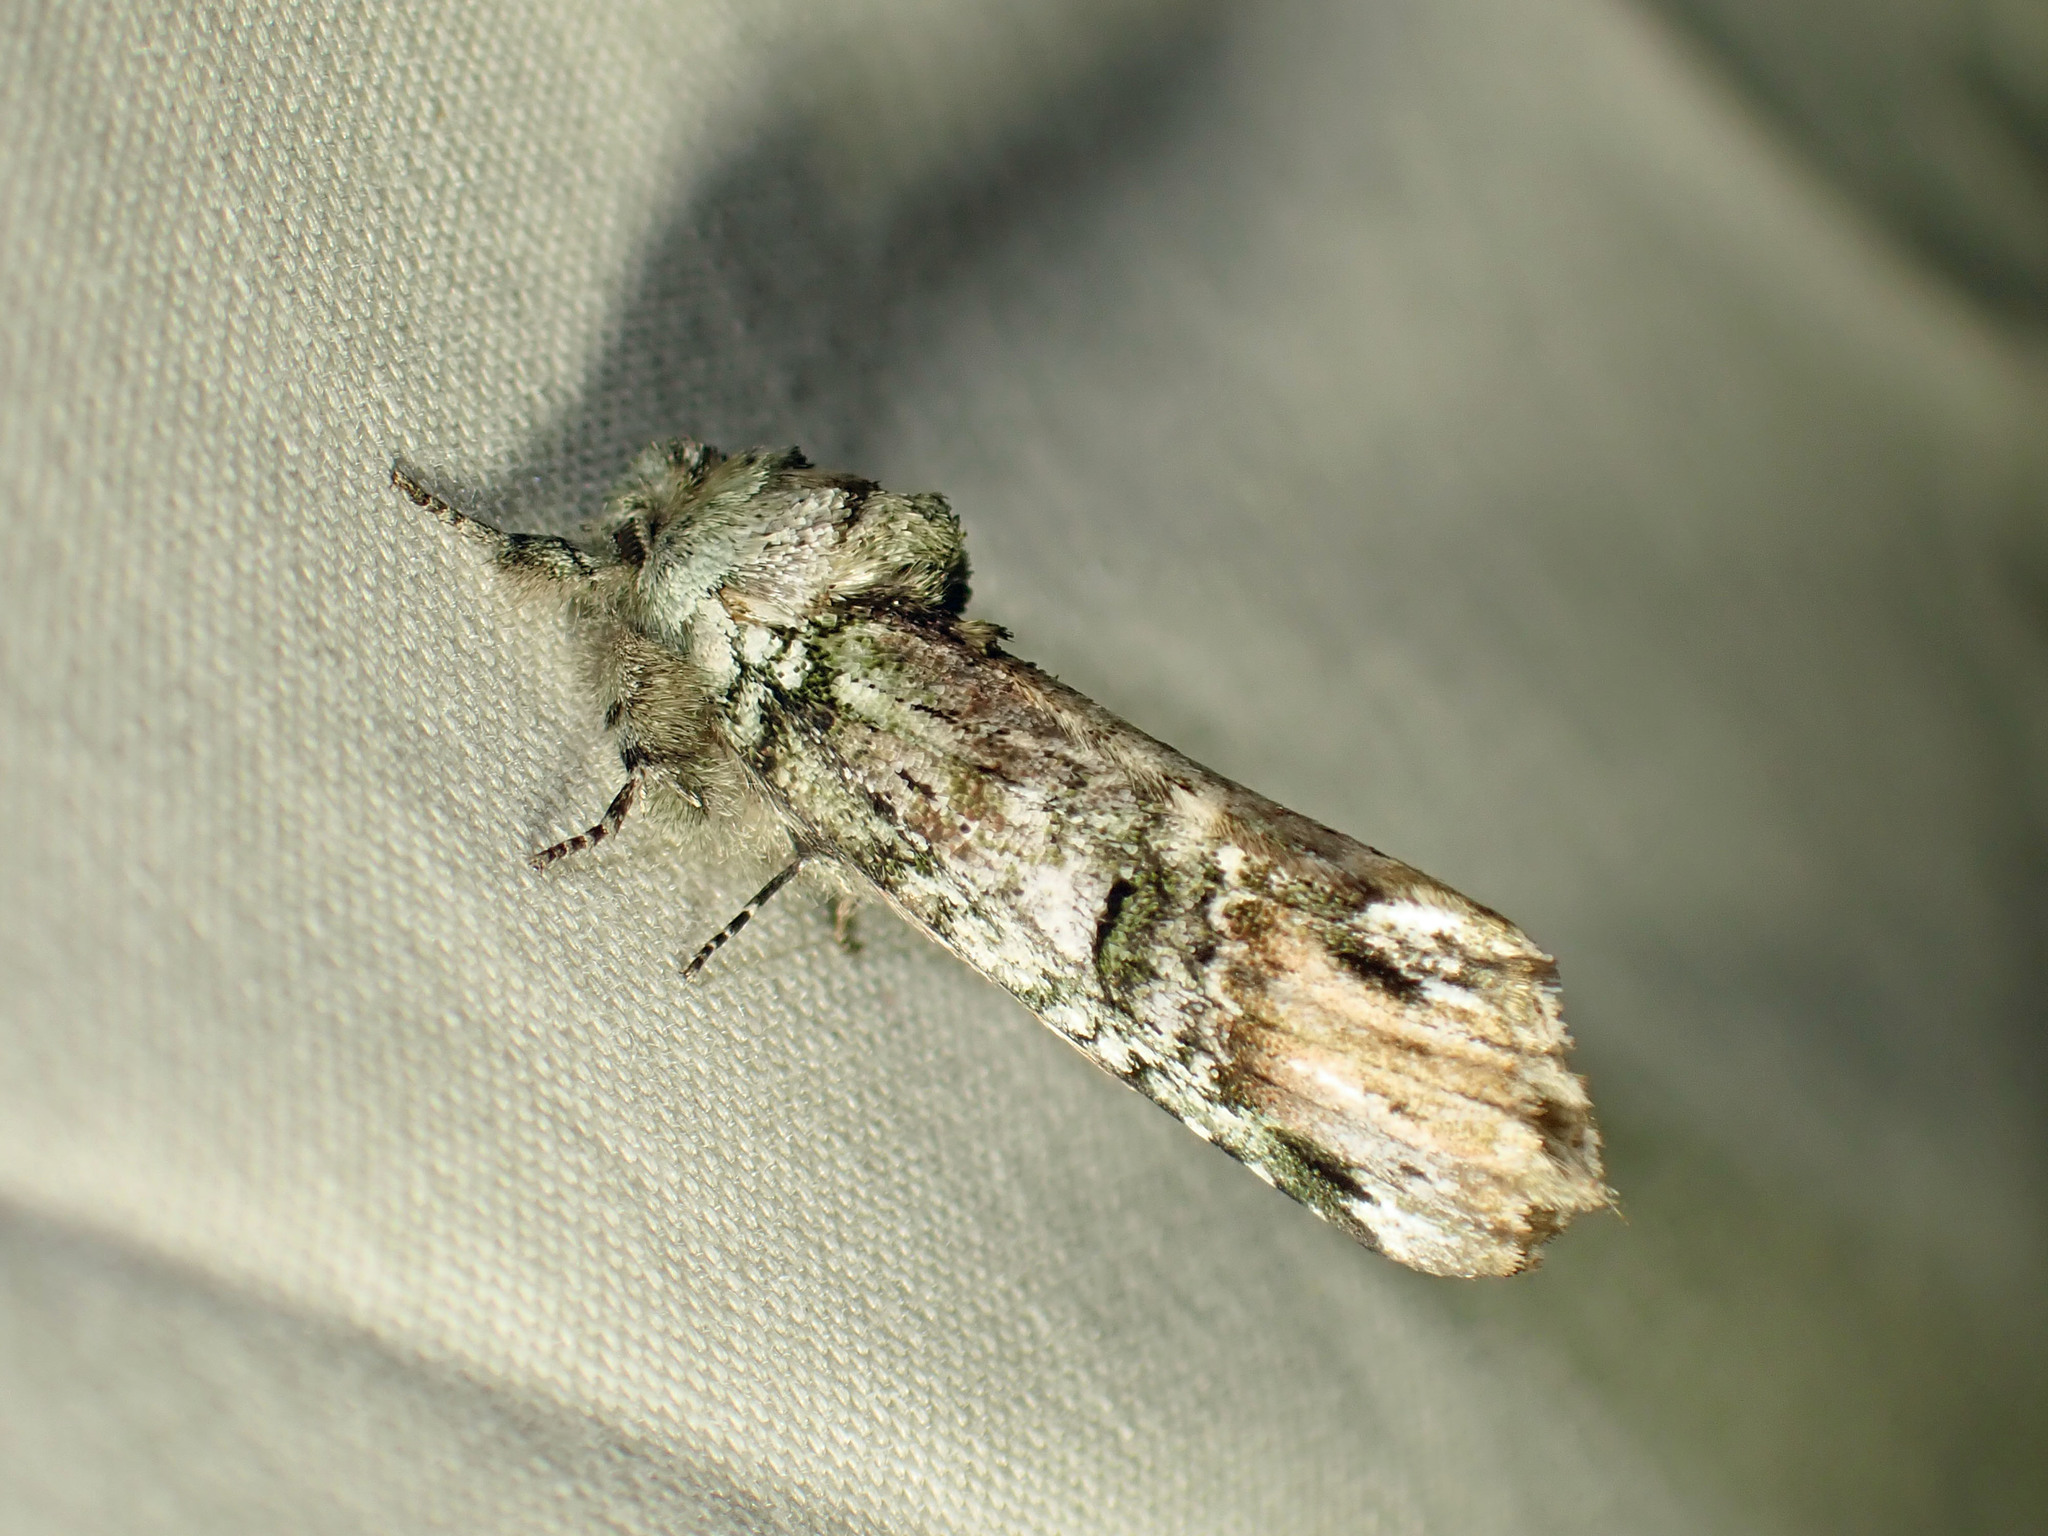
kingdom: Animalia
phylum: Arthropoda
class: Insecta
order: Lepidoptera
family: Notodontidae
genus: Schizura
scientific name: Schizura
